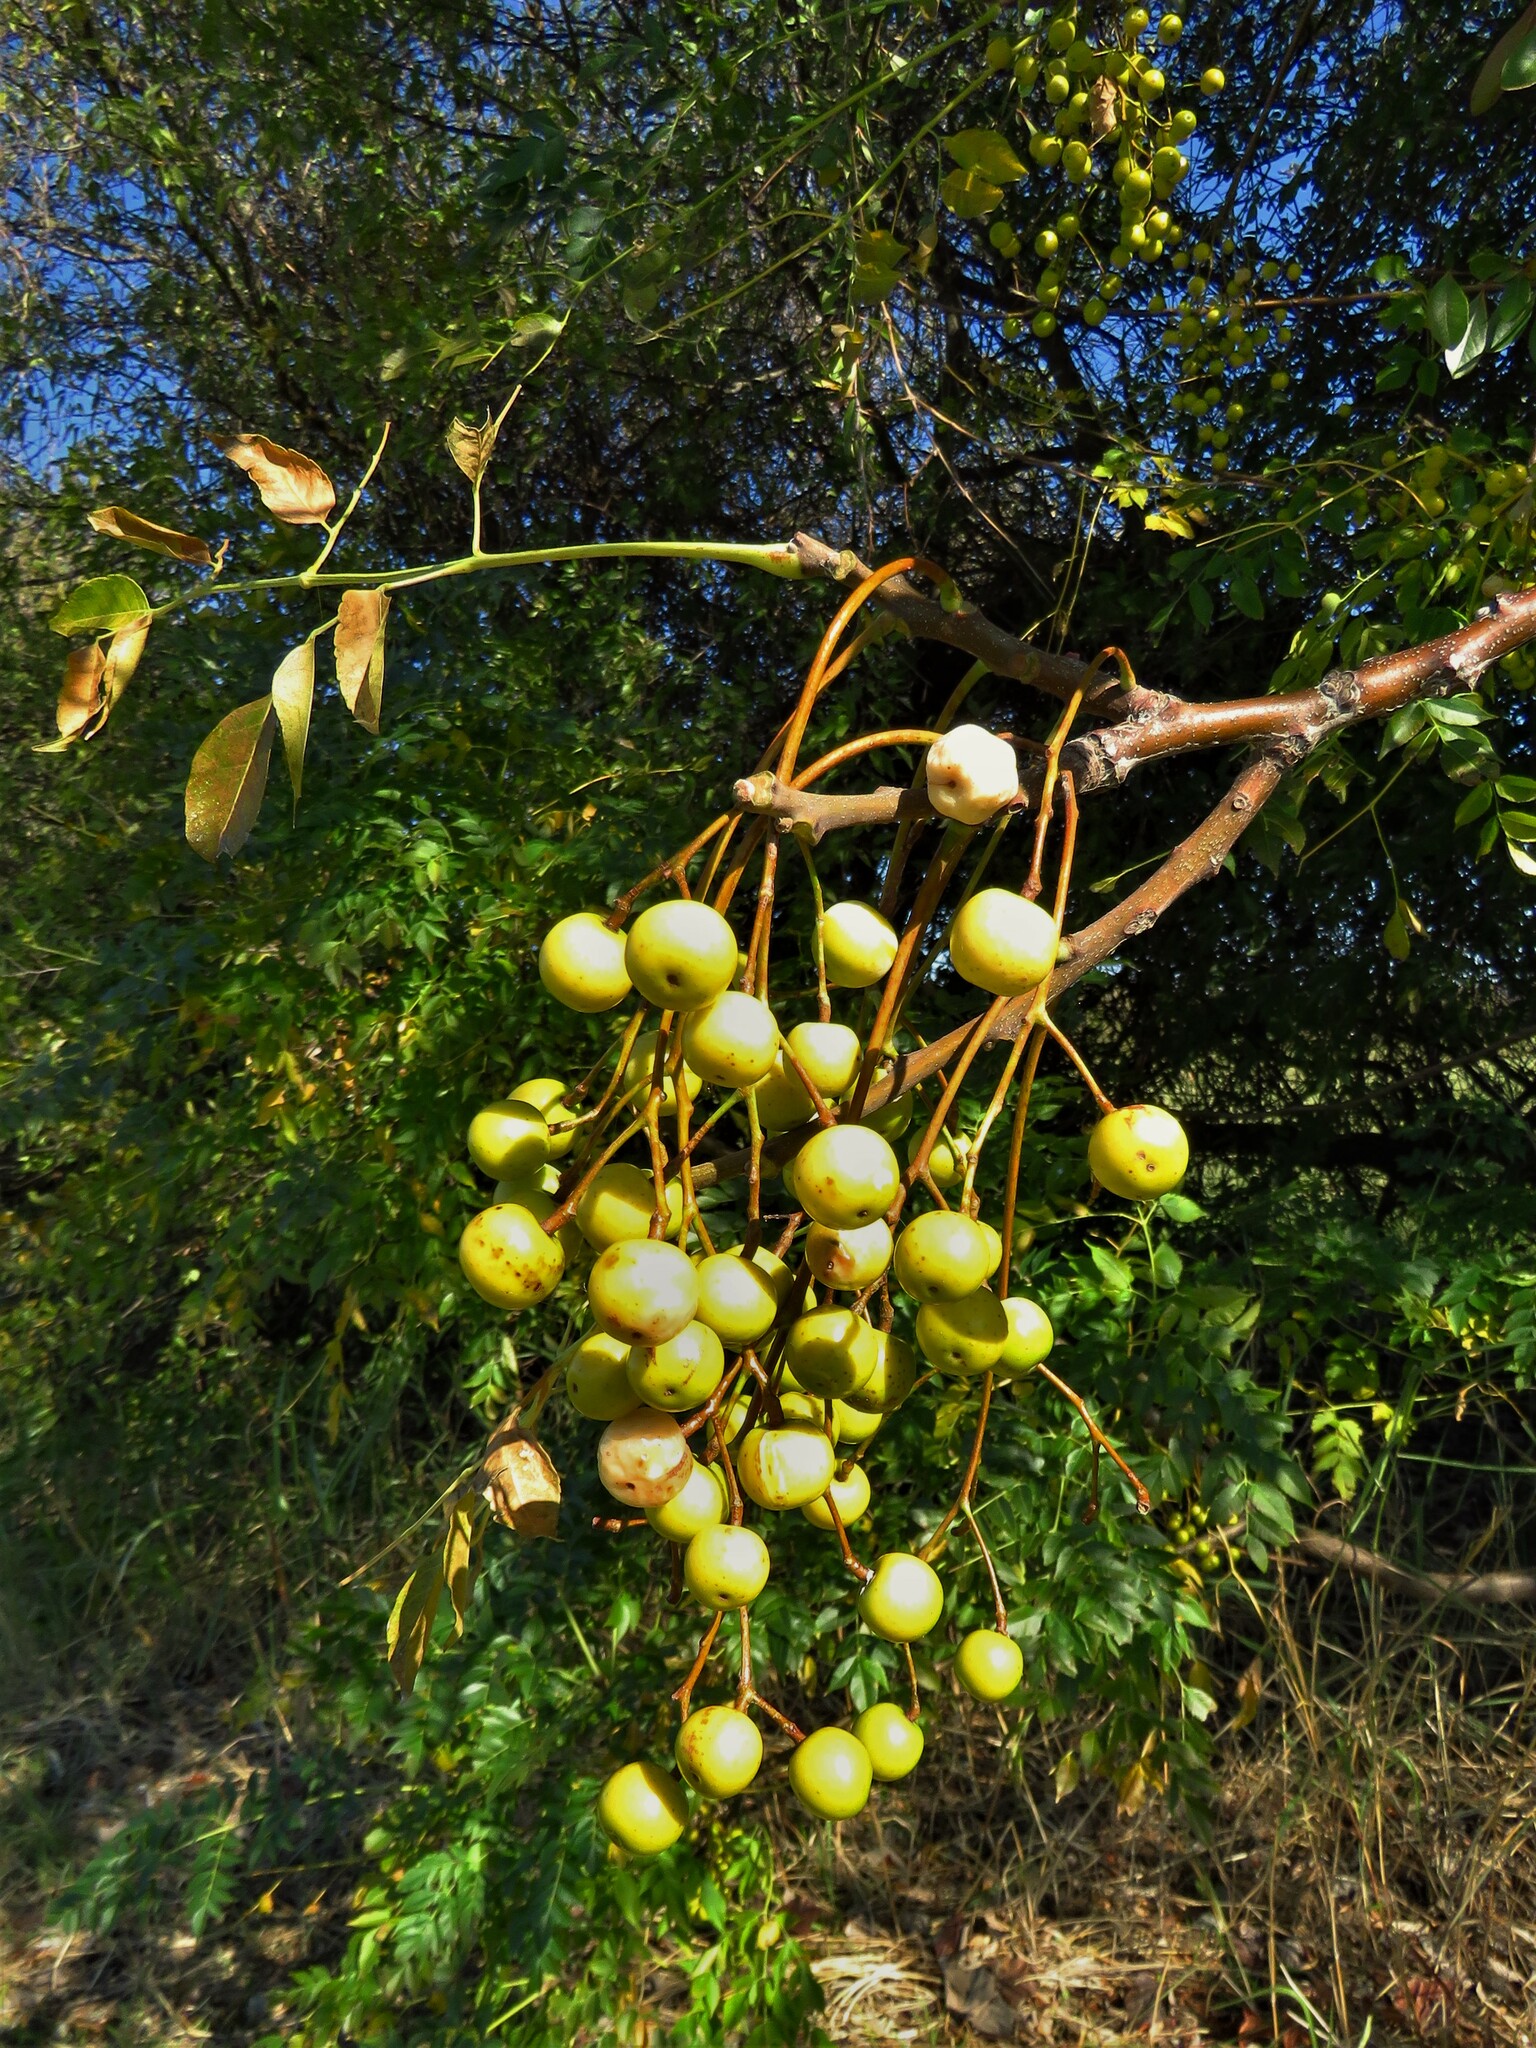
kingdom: Plantae
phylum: Tracheophyta
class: Magnoliopsida
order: Sapindales
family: Meliaceae
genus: Melia
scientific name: Melia azedarach
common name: Chinaberrytree
